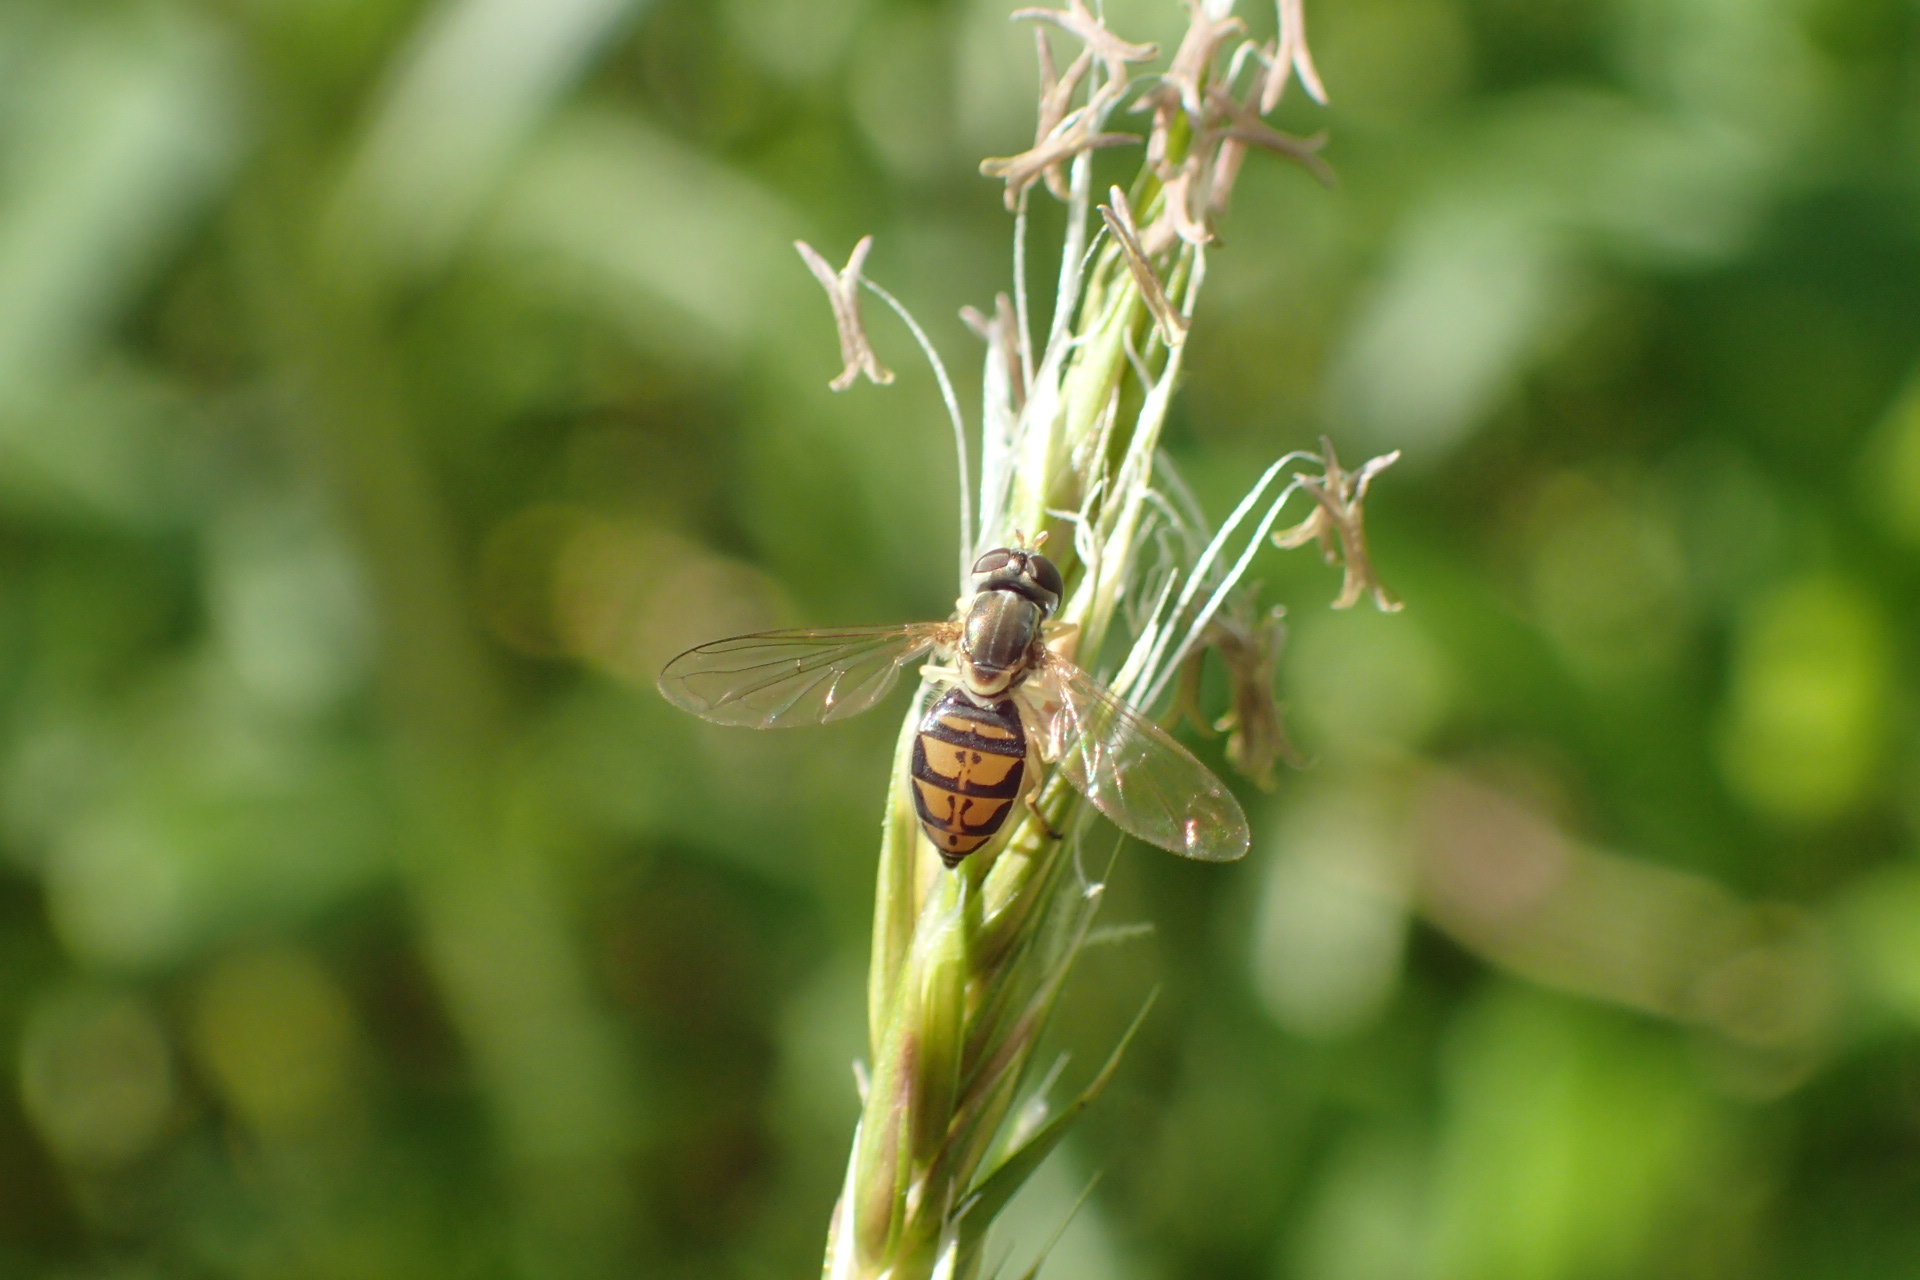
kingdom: Animalia
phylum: Arthropoda
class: Insecta
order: Diptera
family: Syrphidae
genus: Toxomerus
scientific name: Toxomerus marginatus
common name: Syrphid fly
